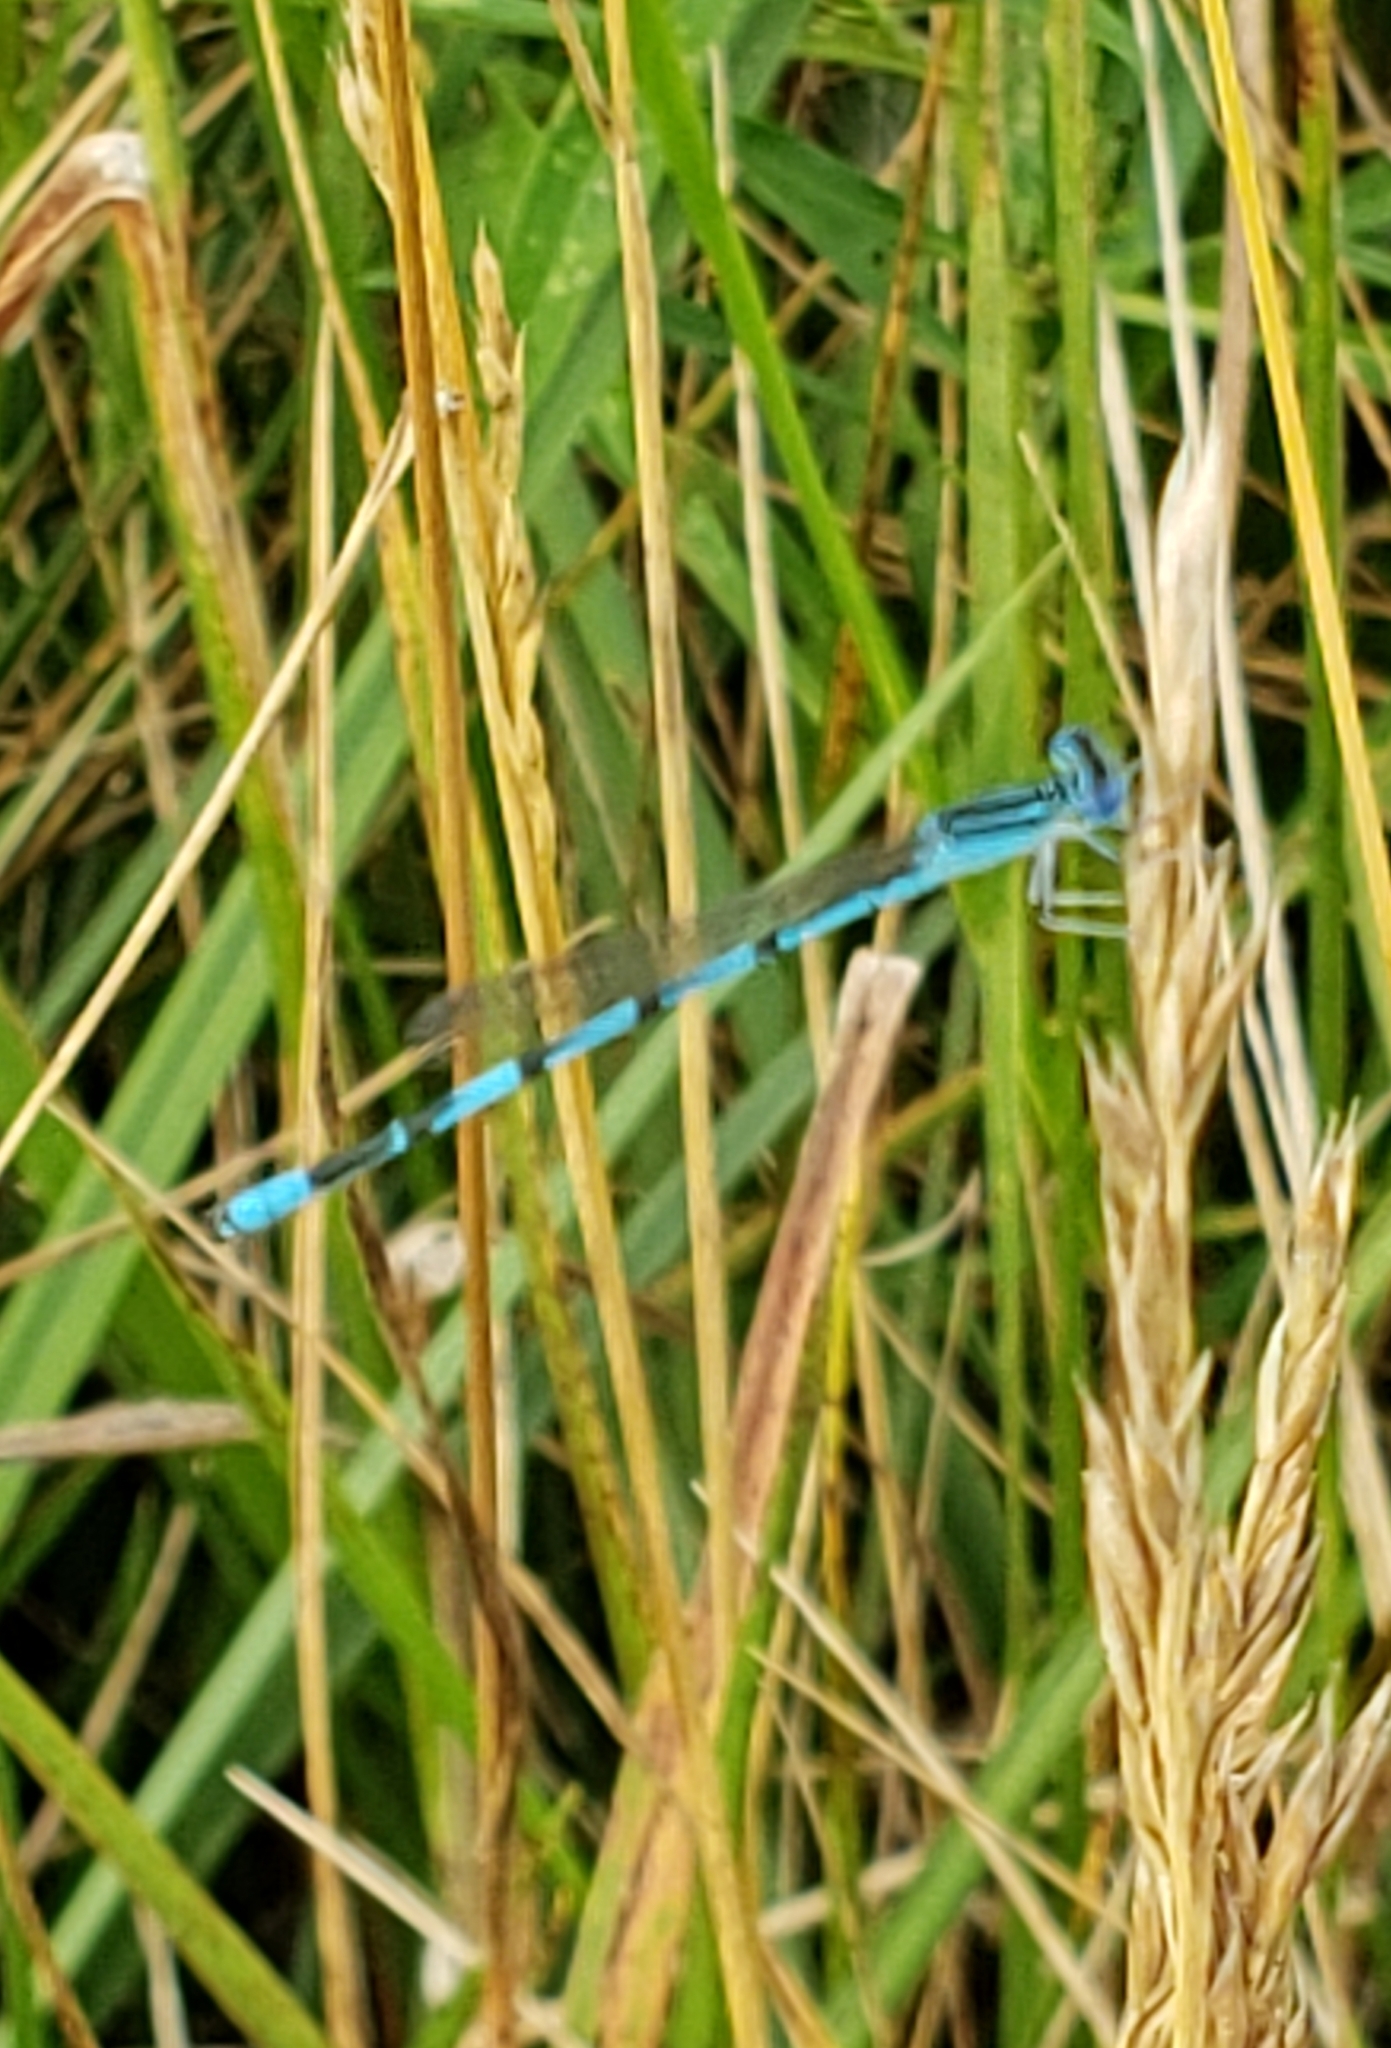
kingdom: Animalia
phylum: Arthropoda
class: Insecta
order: Odonata
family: Coenagrionidae
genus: Enallagma
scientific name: Enallagma basidens
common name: Double-striped bluet
